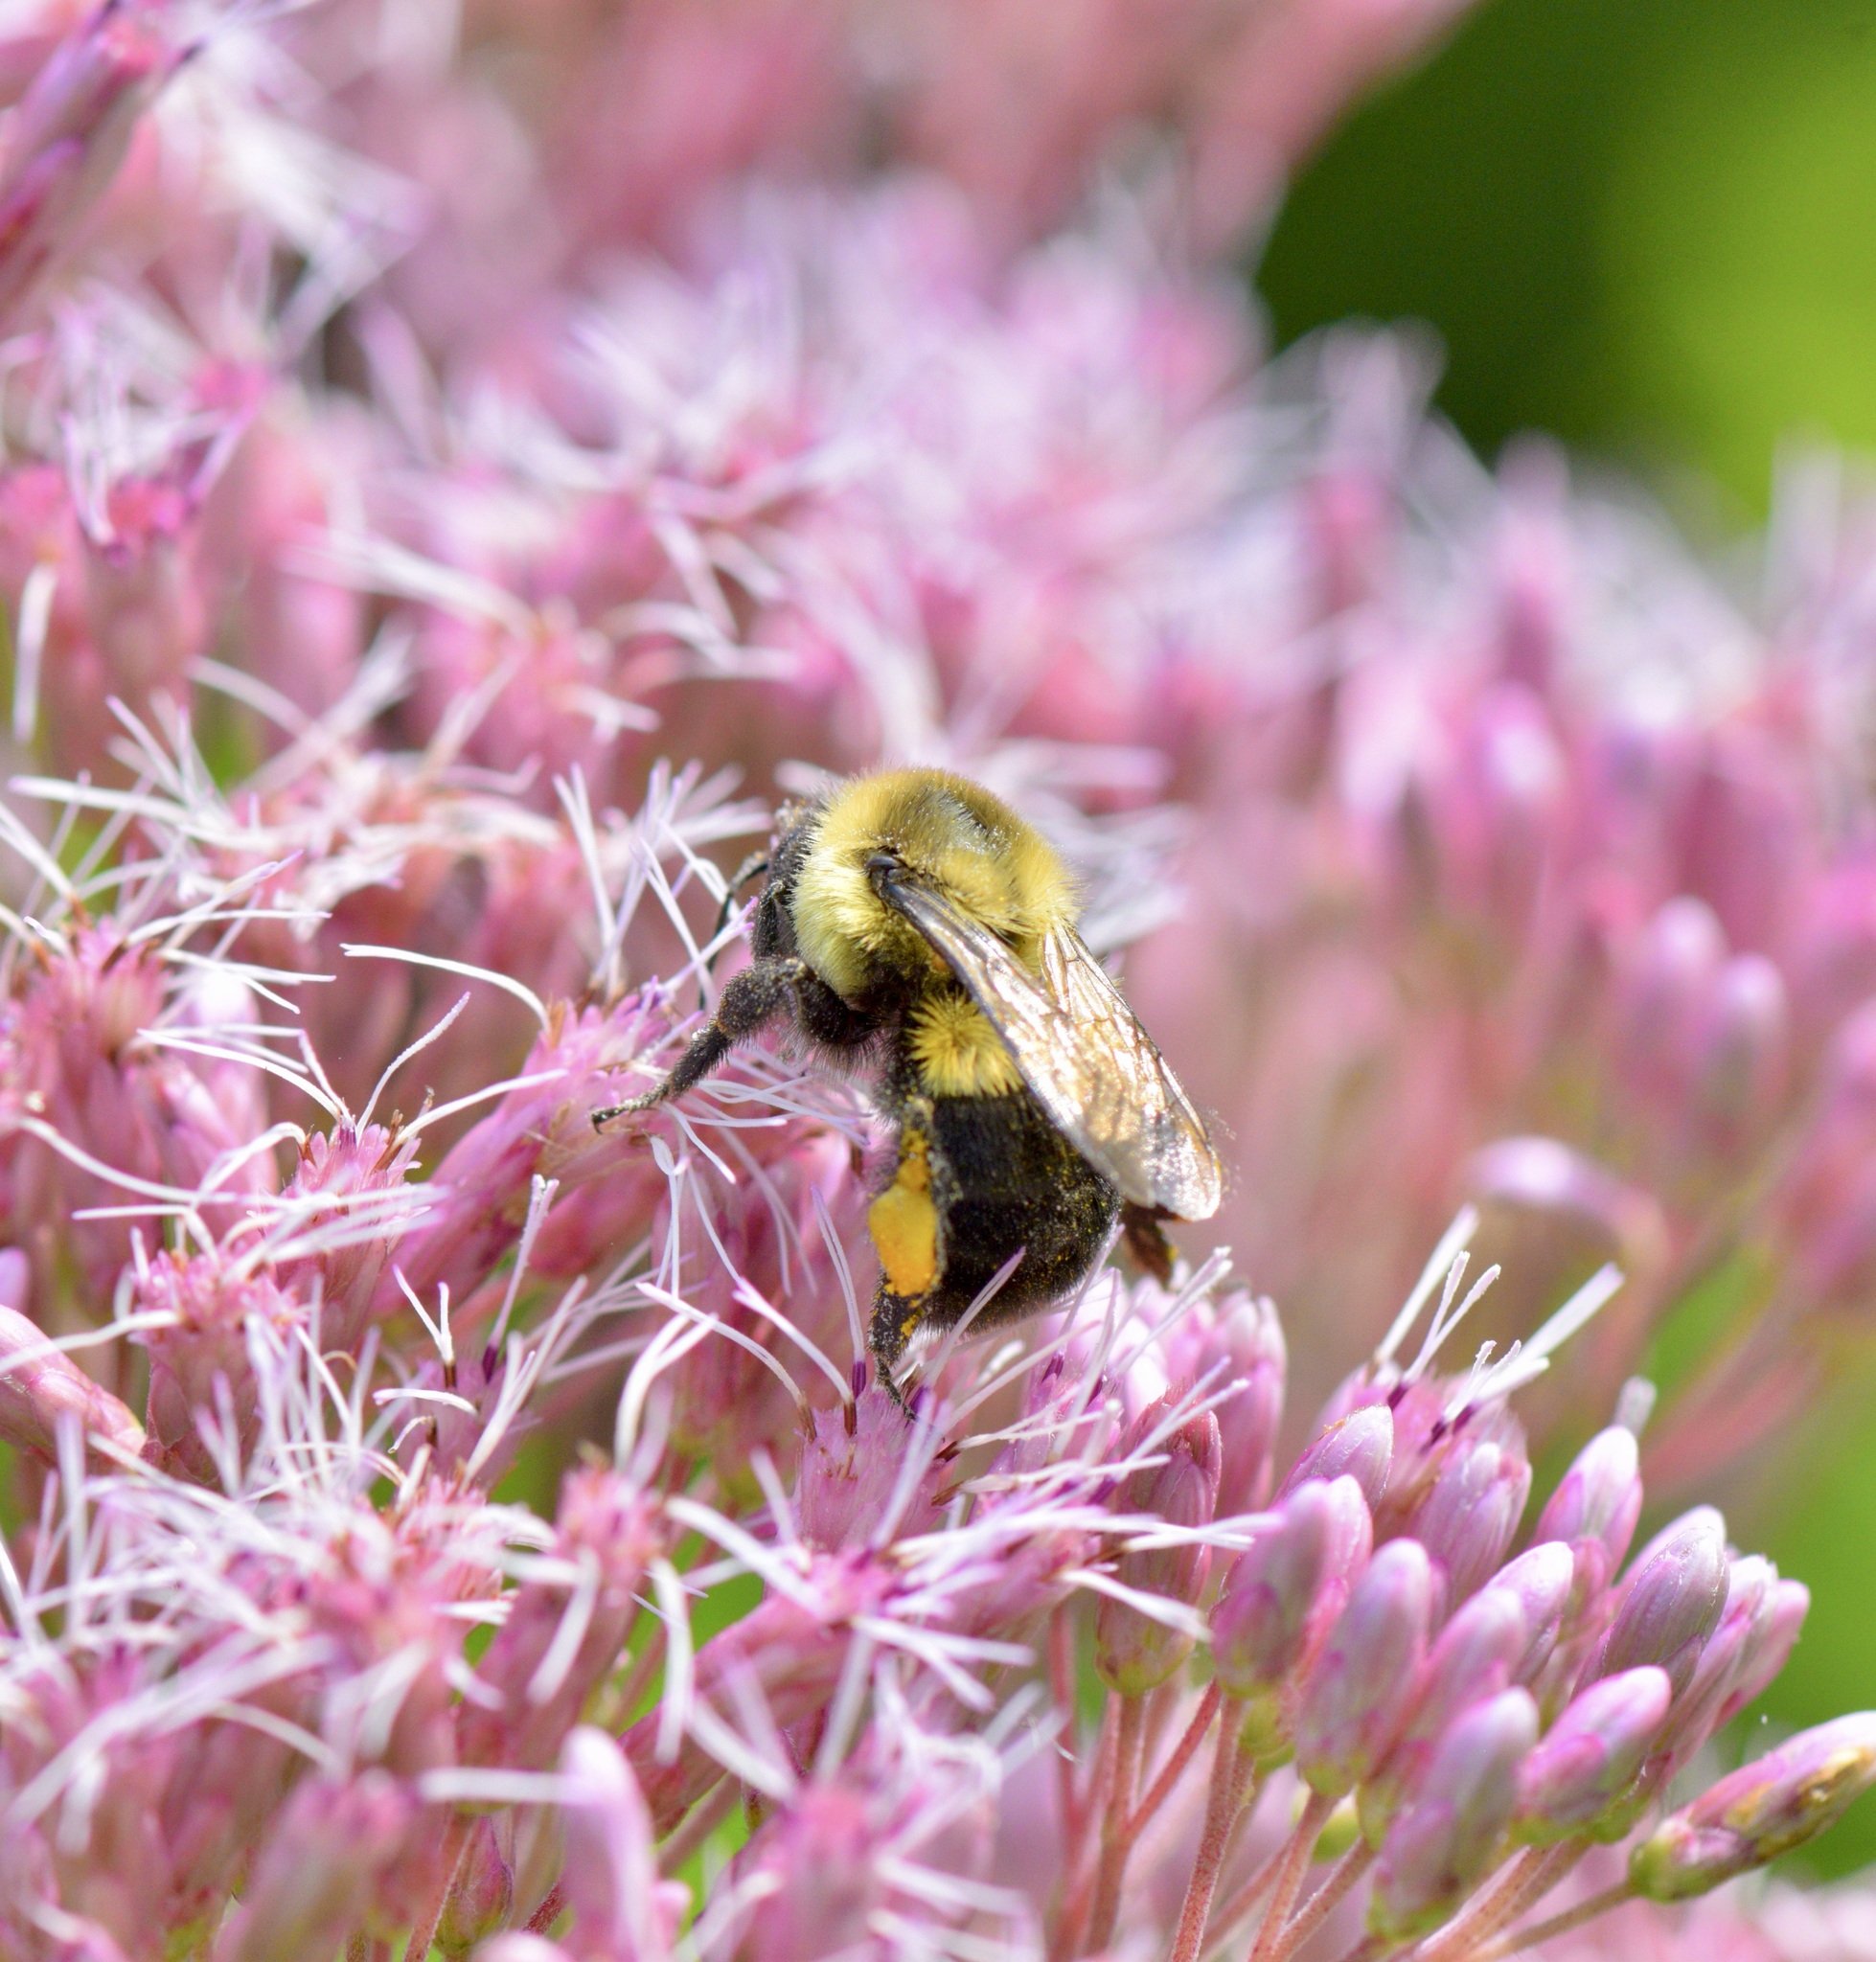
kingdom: Animalia
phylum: Arthropoda
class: Insecta
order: Hymenoptera
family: Apidae
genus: Bombus
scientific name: Bombus impatiens
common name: Common eastern bumble bee
